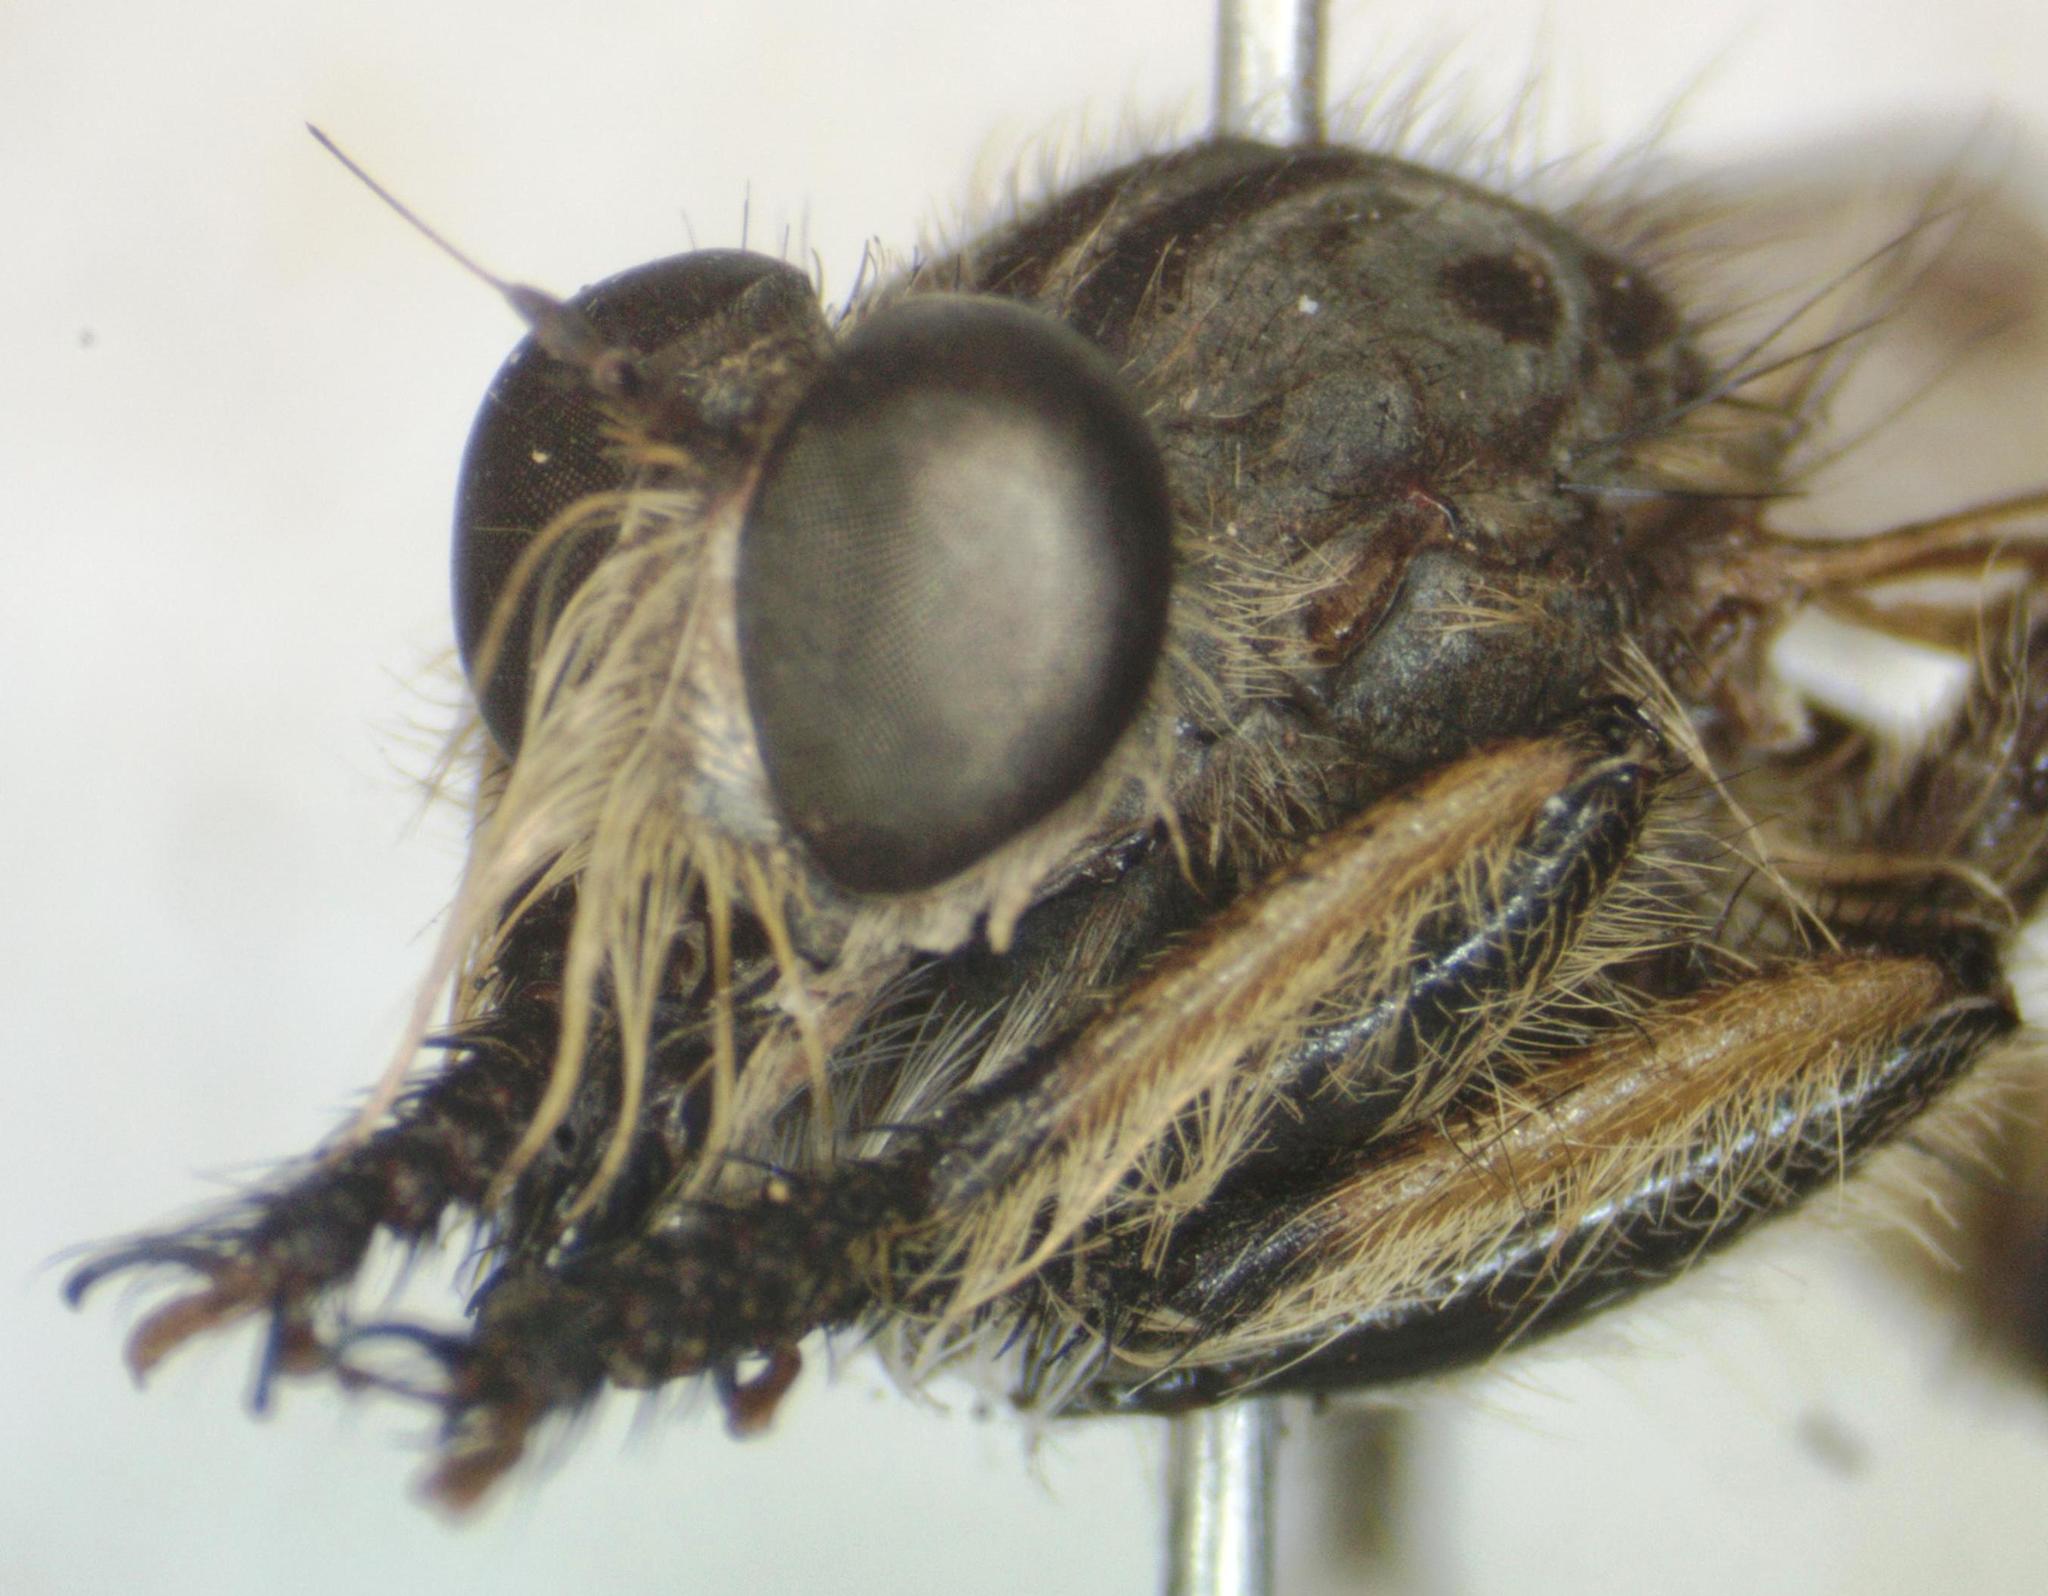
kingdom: Animalia
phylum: Arthropoda
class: Insecta
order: Diptera
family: Asilidae
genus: Amblyonychus
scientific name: Amblyonychus trapezoidalis
